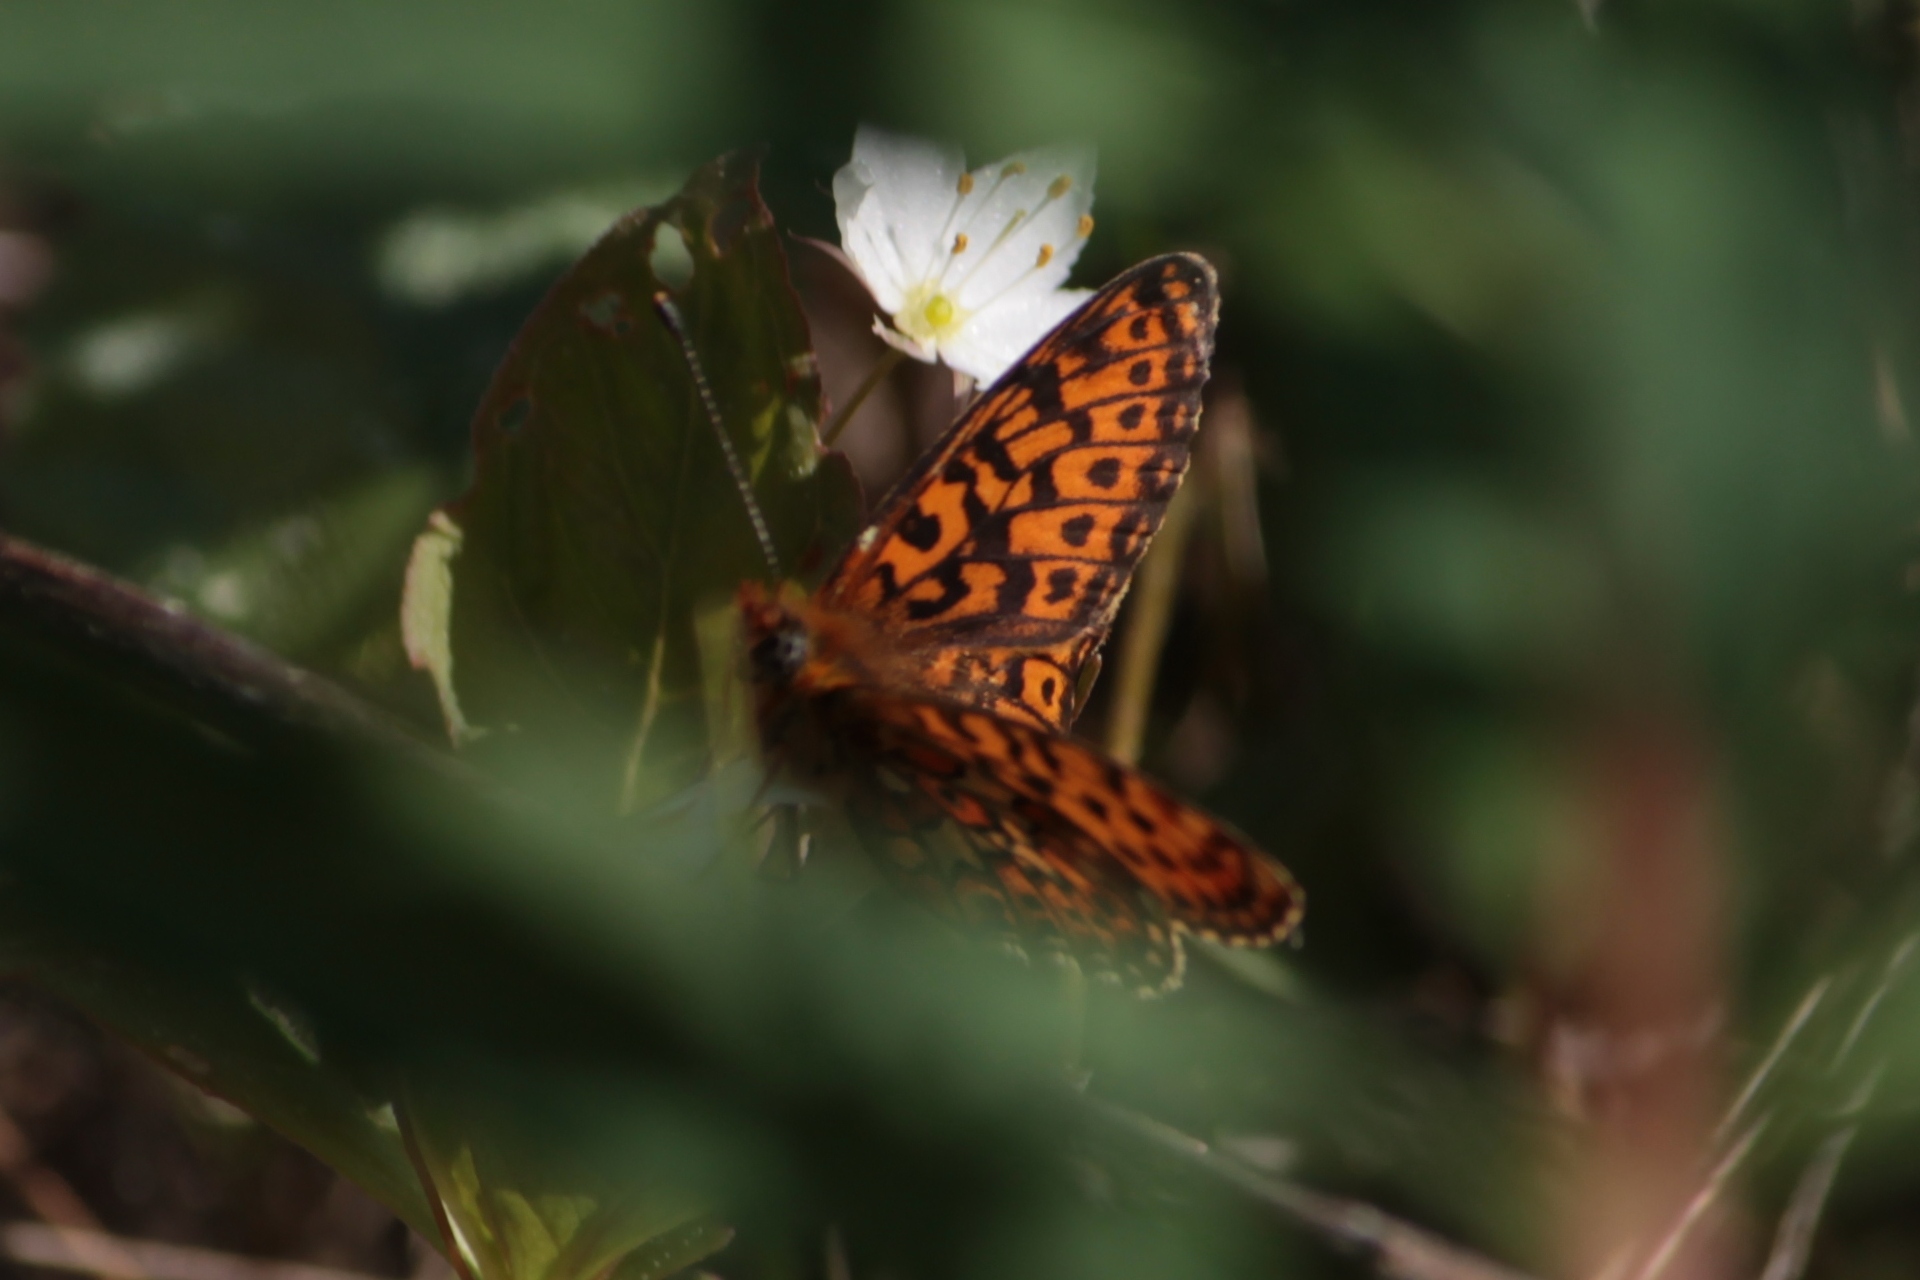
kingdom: Animalia
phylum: Arthropoda
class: Insecta
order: Lepidoptera
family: Nymphalidae
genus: Clossiana
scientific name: Clossiana euphrosyne
